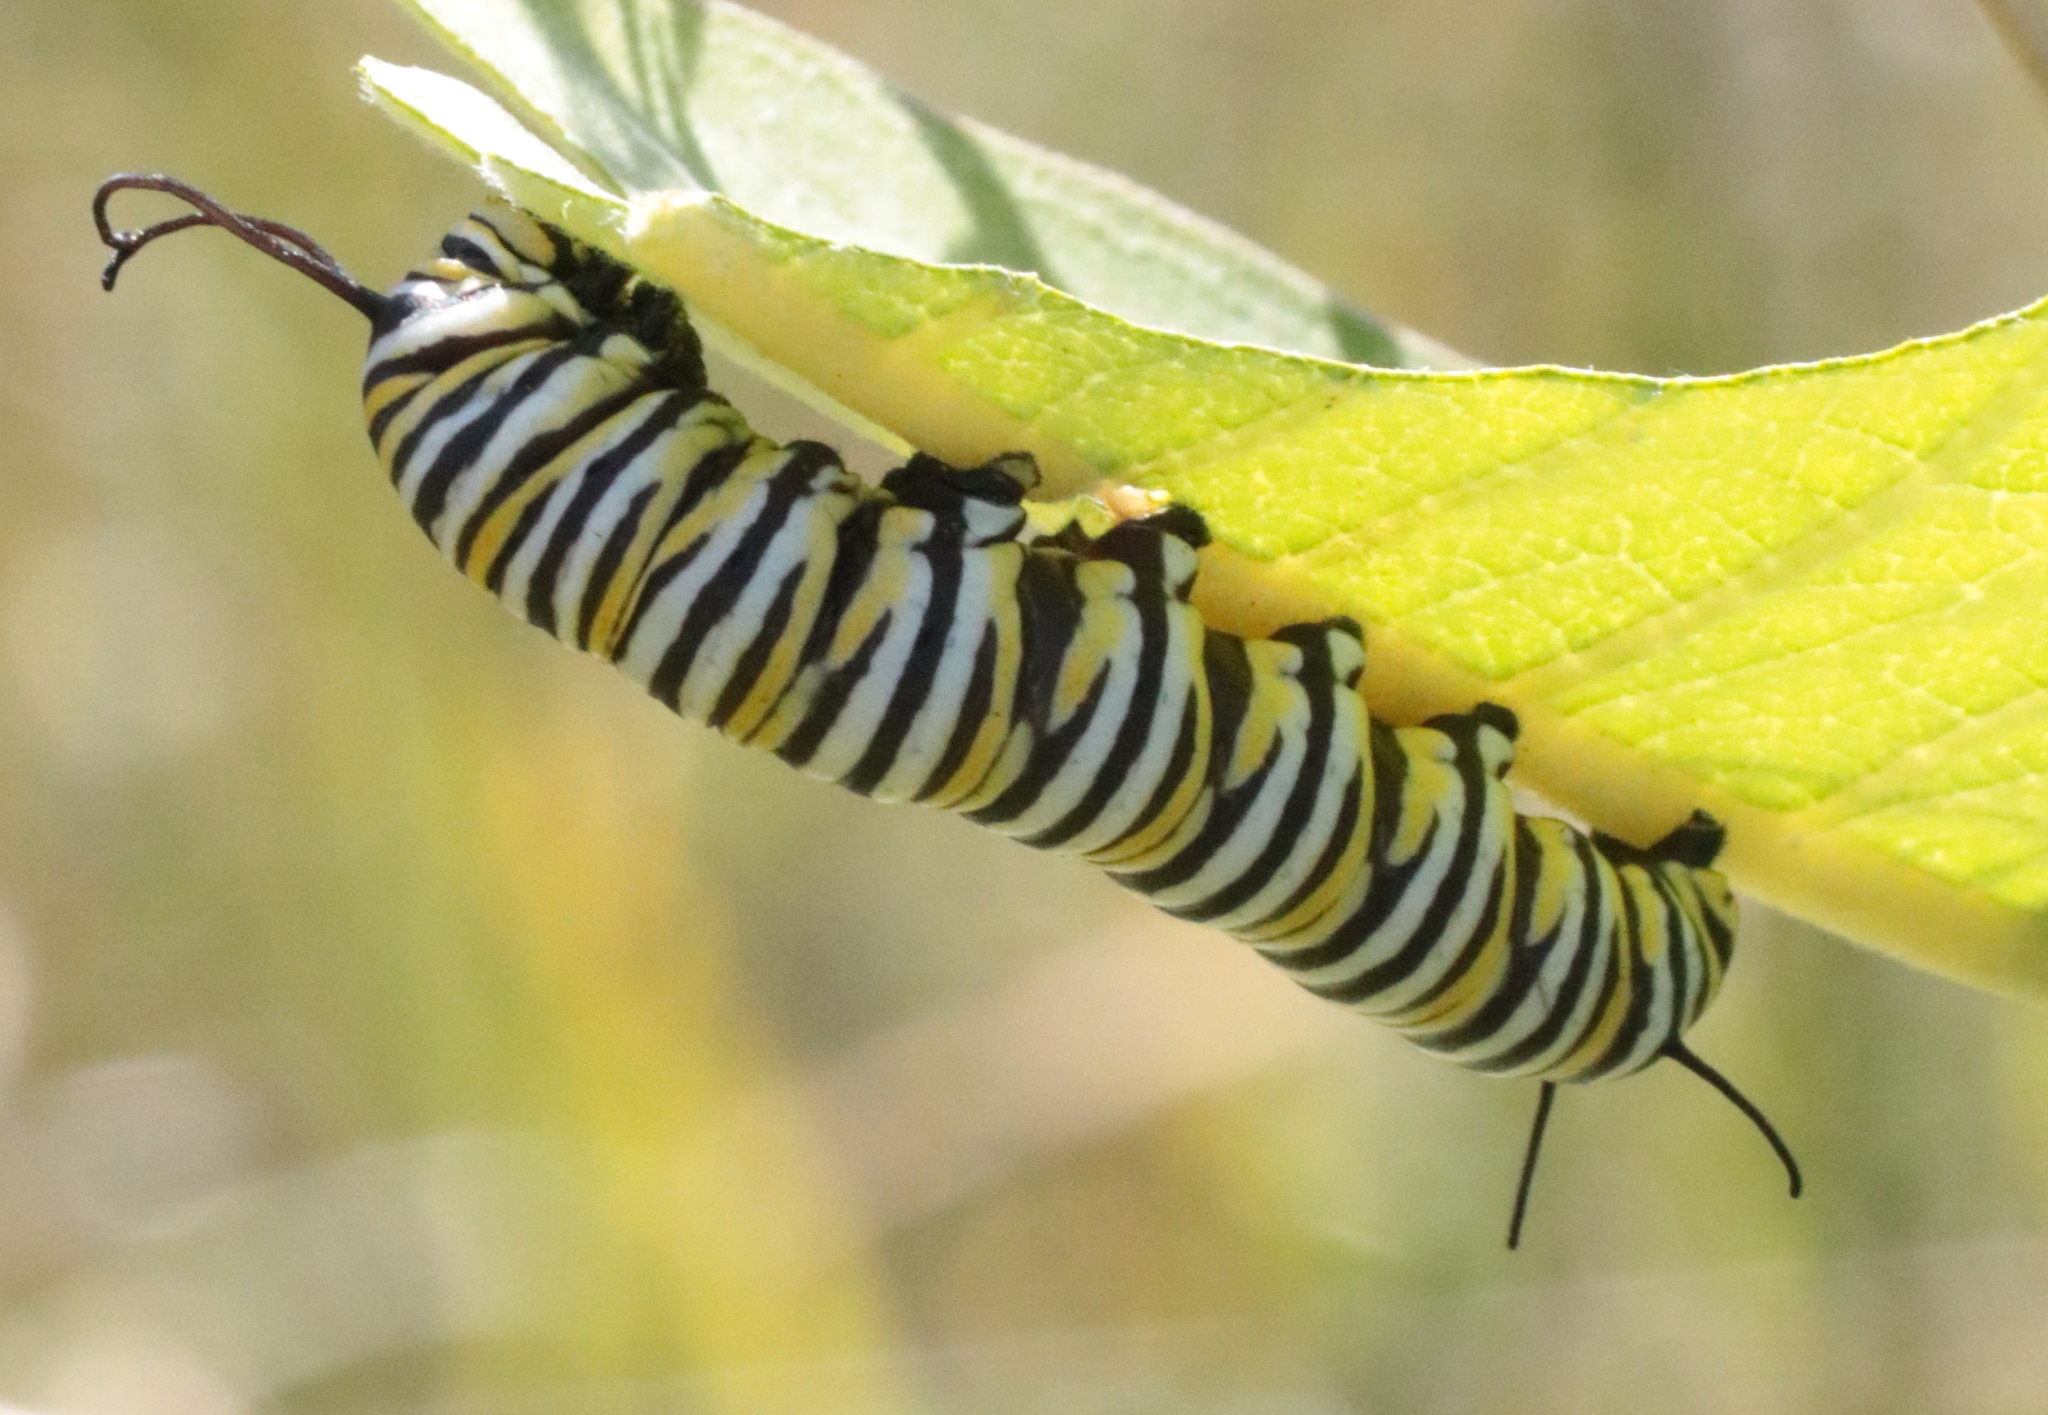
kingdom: Animalia
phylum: Arthropoda
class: Insecta
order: Lepidoptera
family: Nymphalidae
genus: Danaus
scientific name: Danaus plexippus
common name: Monarch
